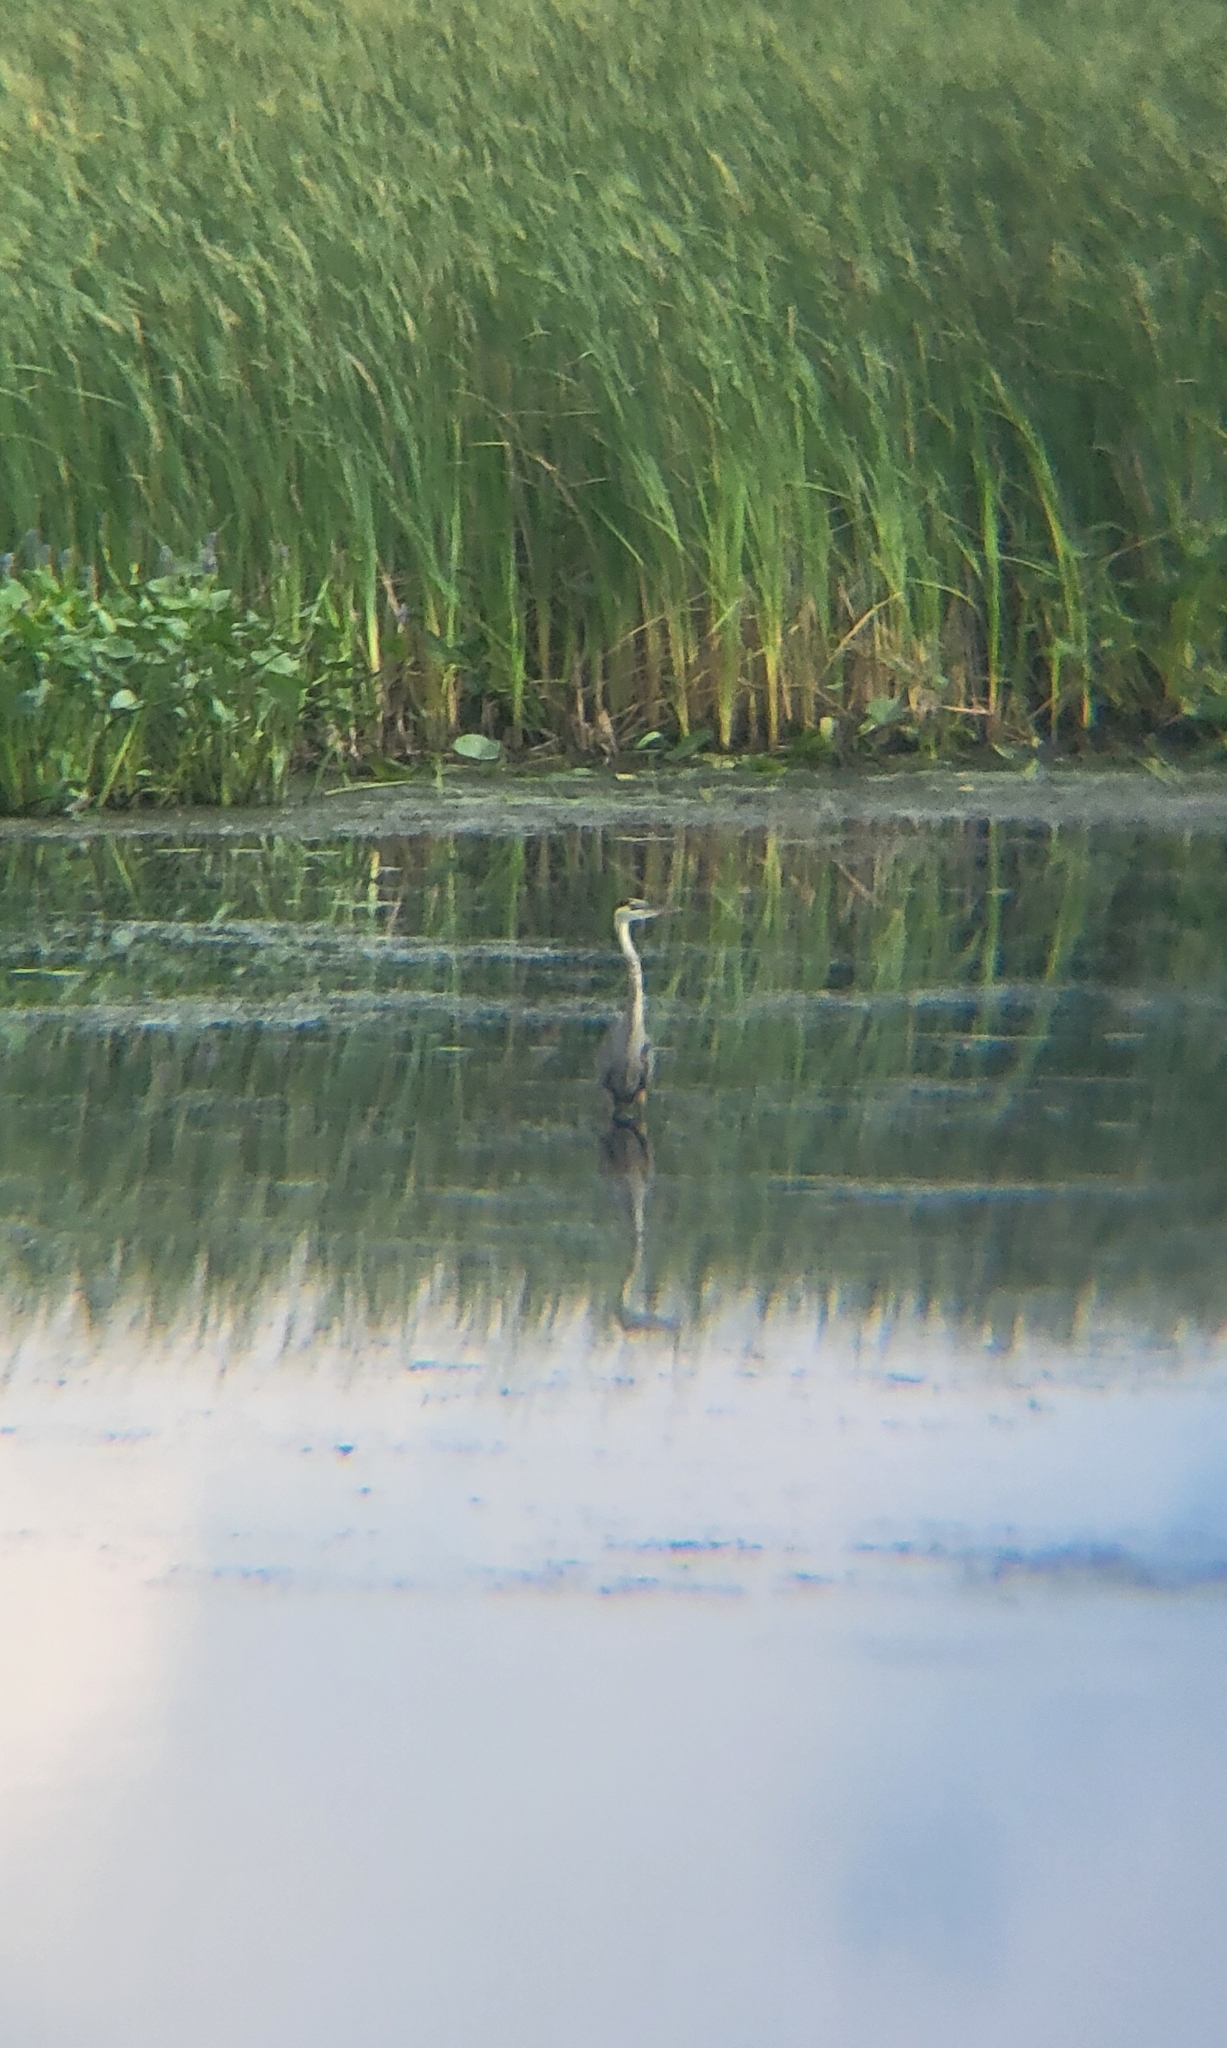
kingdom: Animalia
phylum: Chordata
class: Aves
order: Pelecaniformes
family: Ardeidae
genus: Ardea
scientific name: Ardea herodias
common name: Great blue heron
